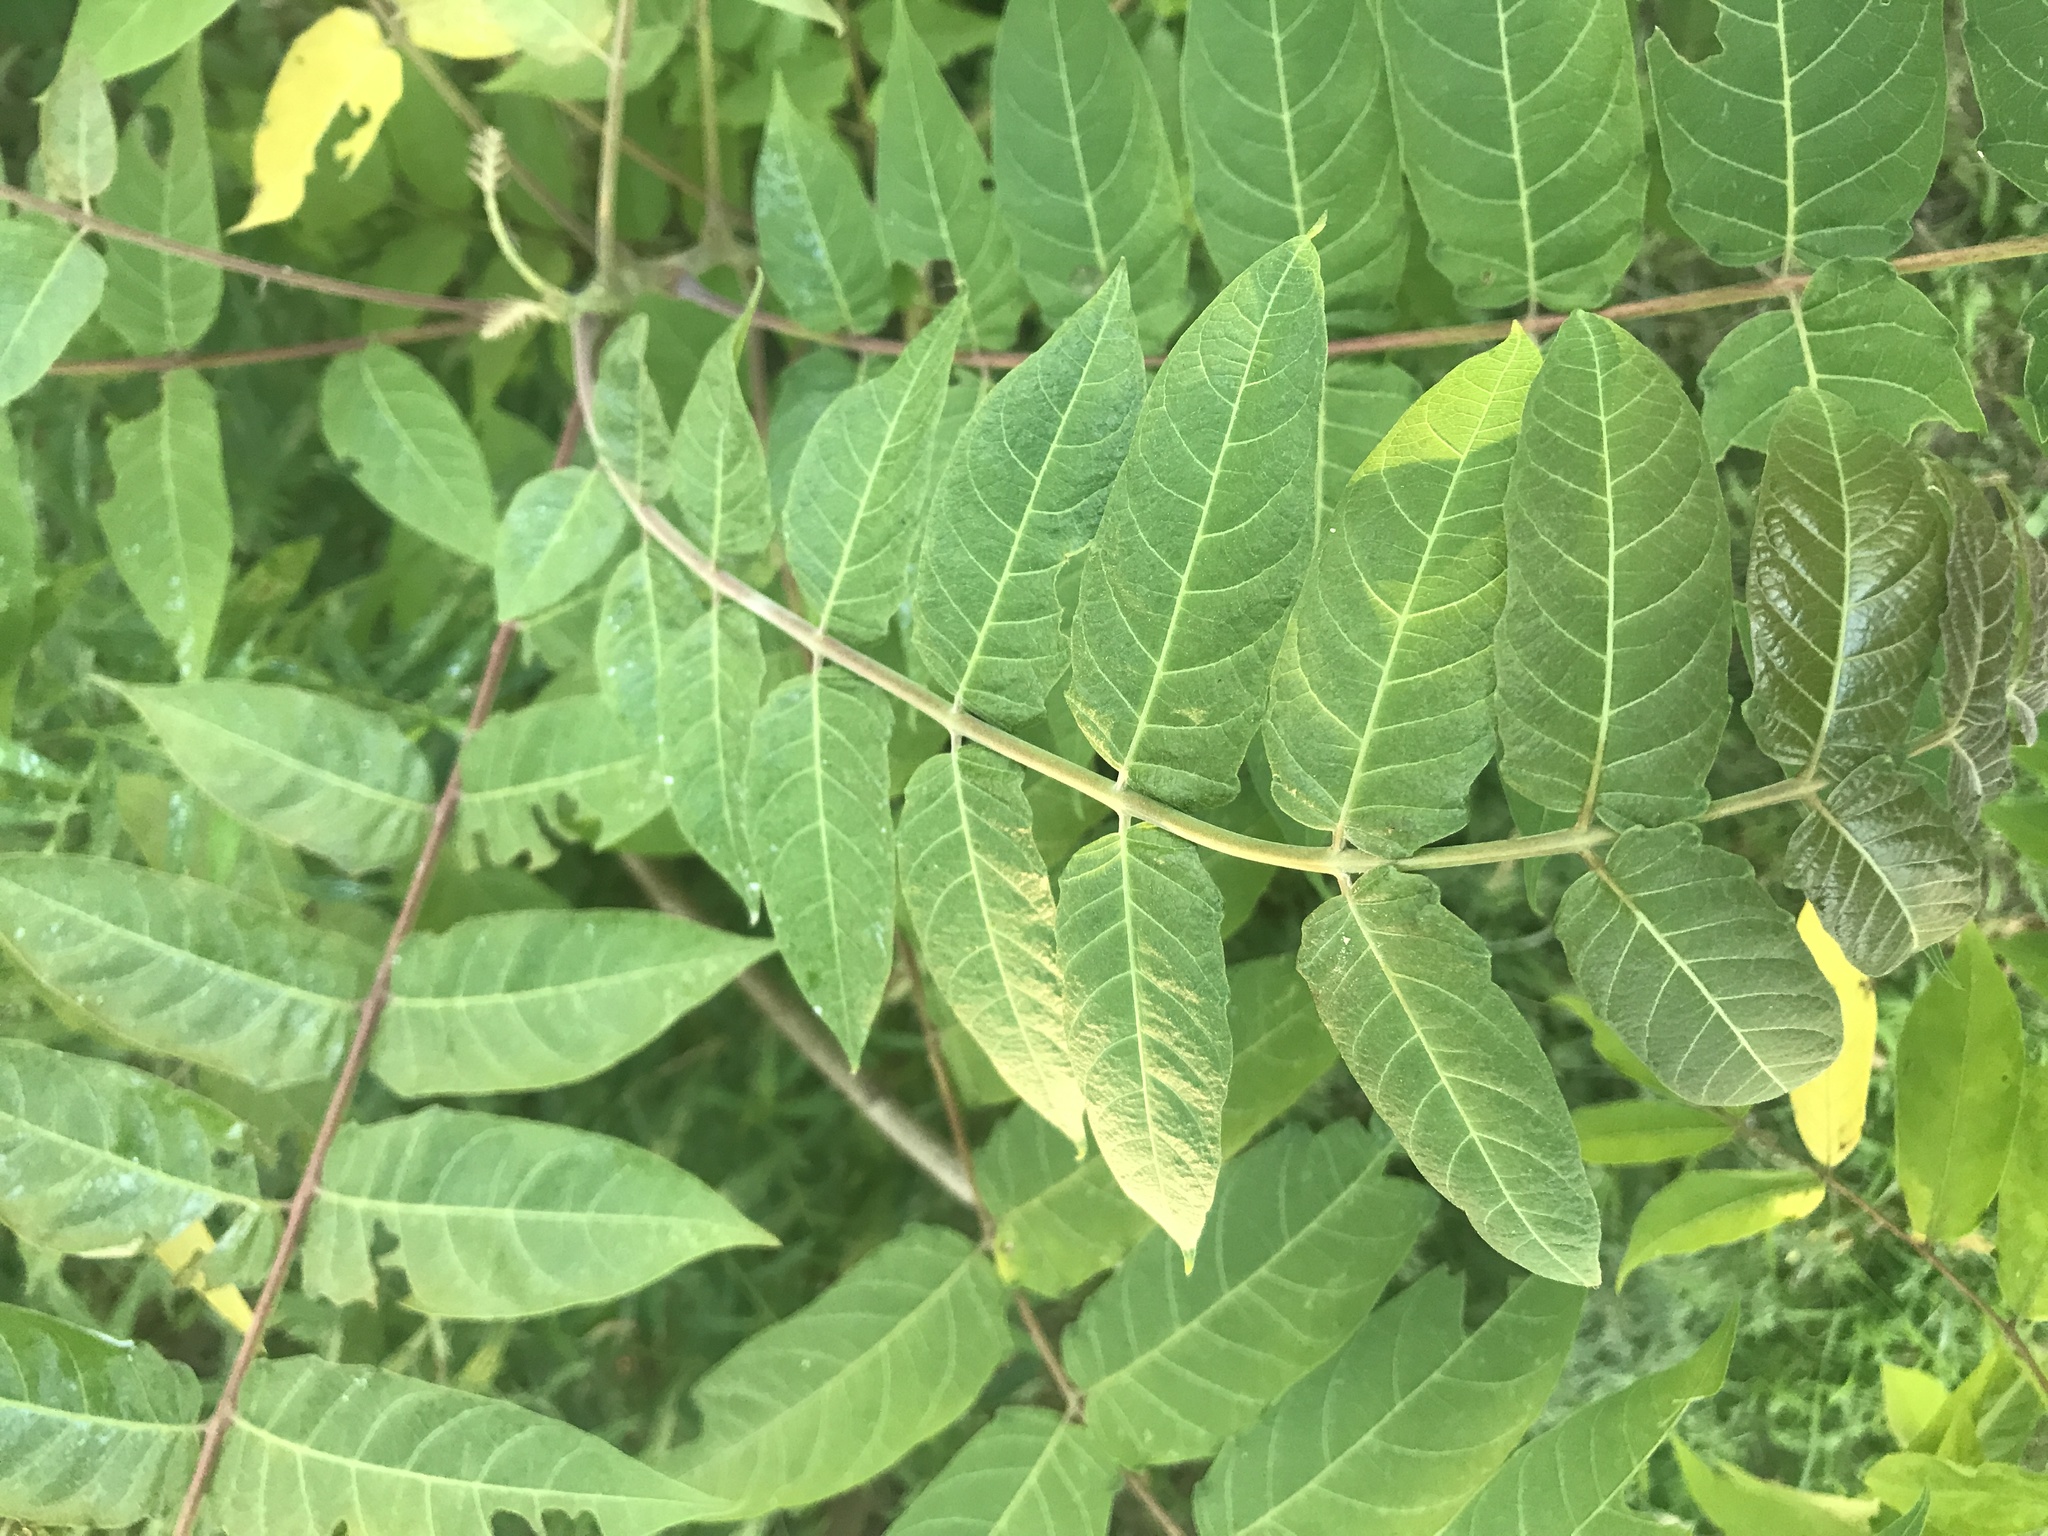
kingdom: Plantae
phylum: Tracheophyta
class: Magnoliopsida
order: Sapindales
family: Simaroubaceae
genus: Ailanthus
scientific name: Ailanthus altissima
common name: Tree-of-heaven
